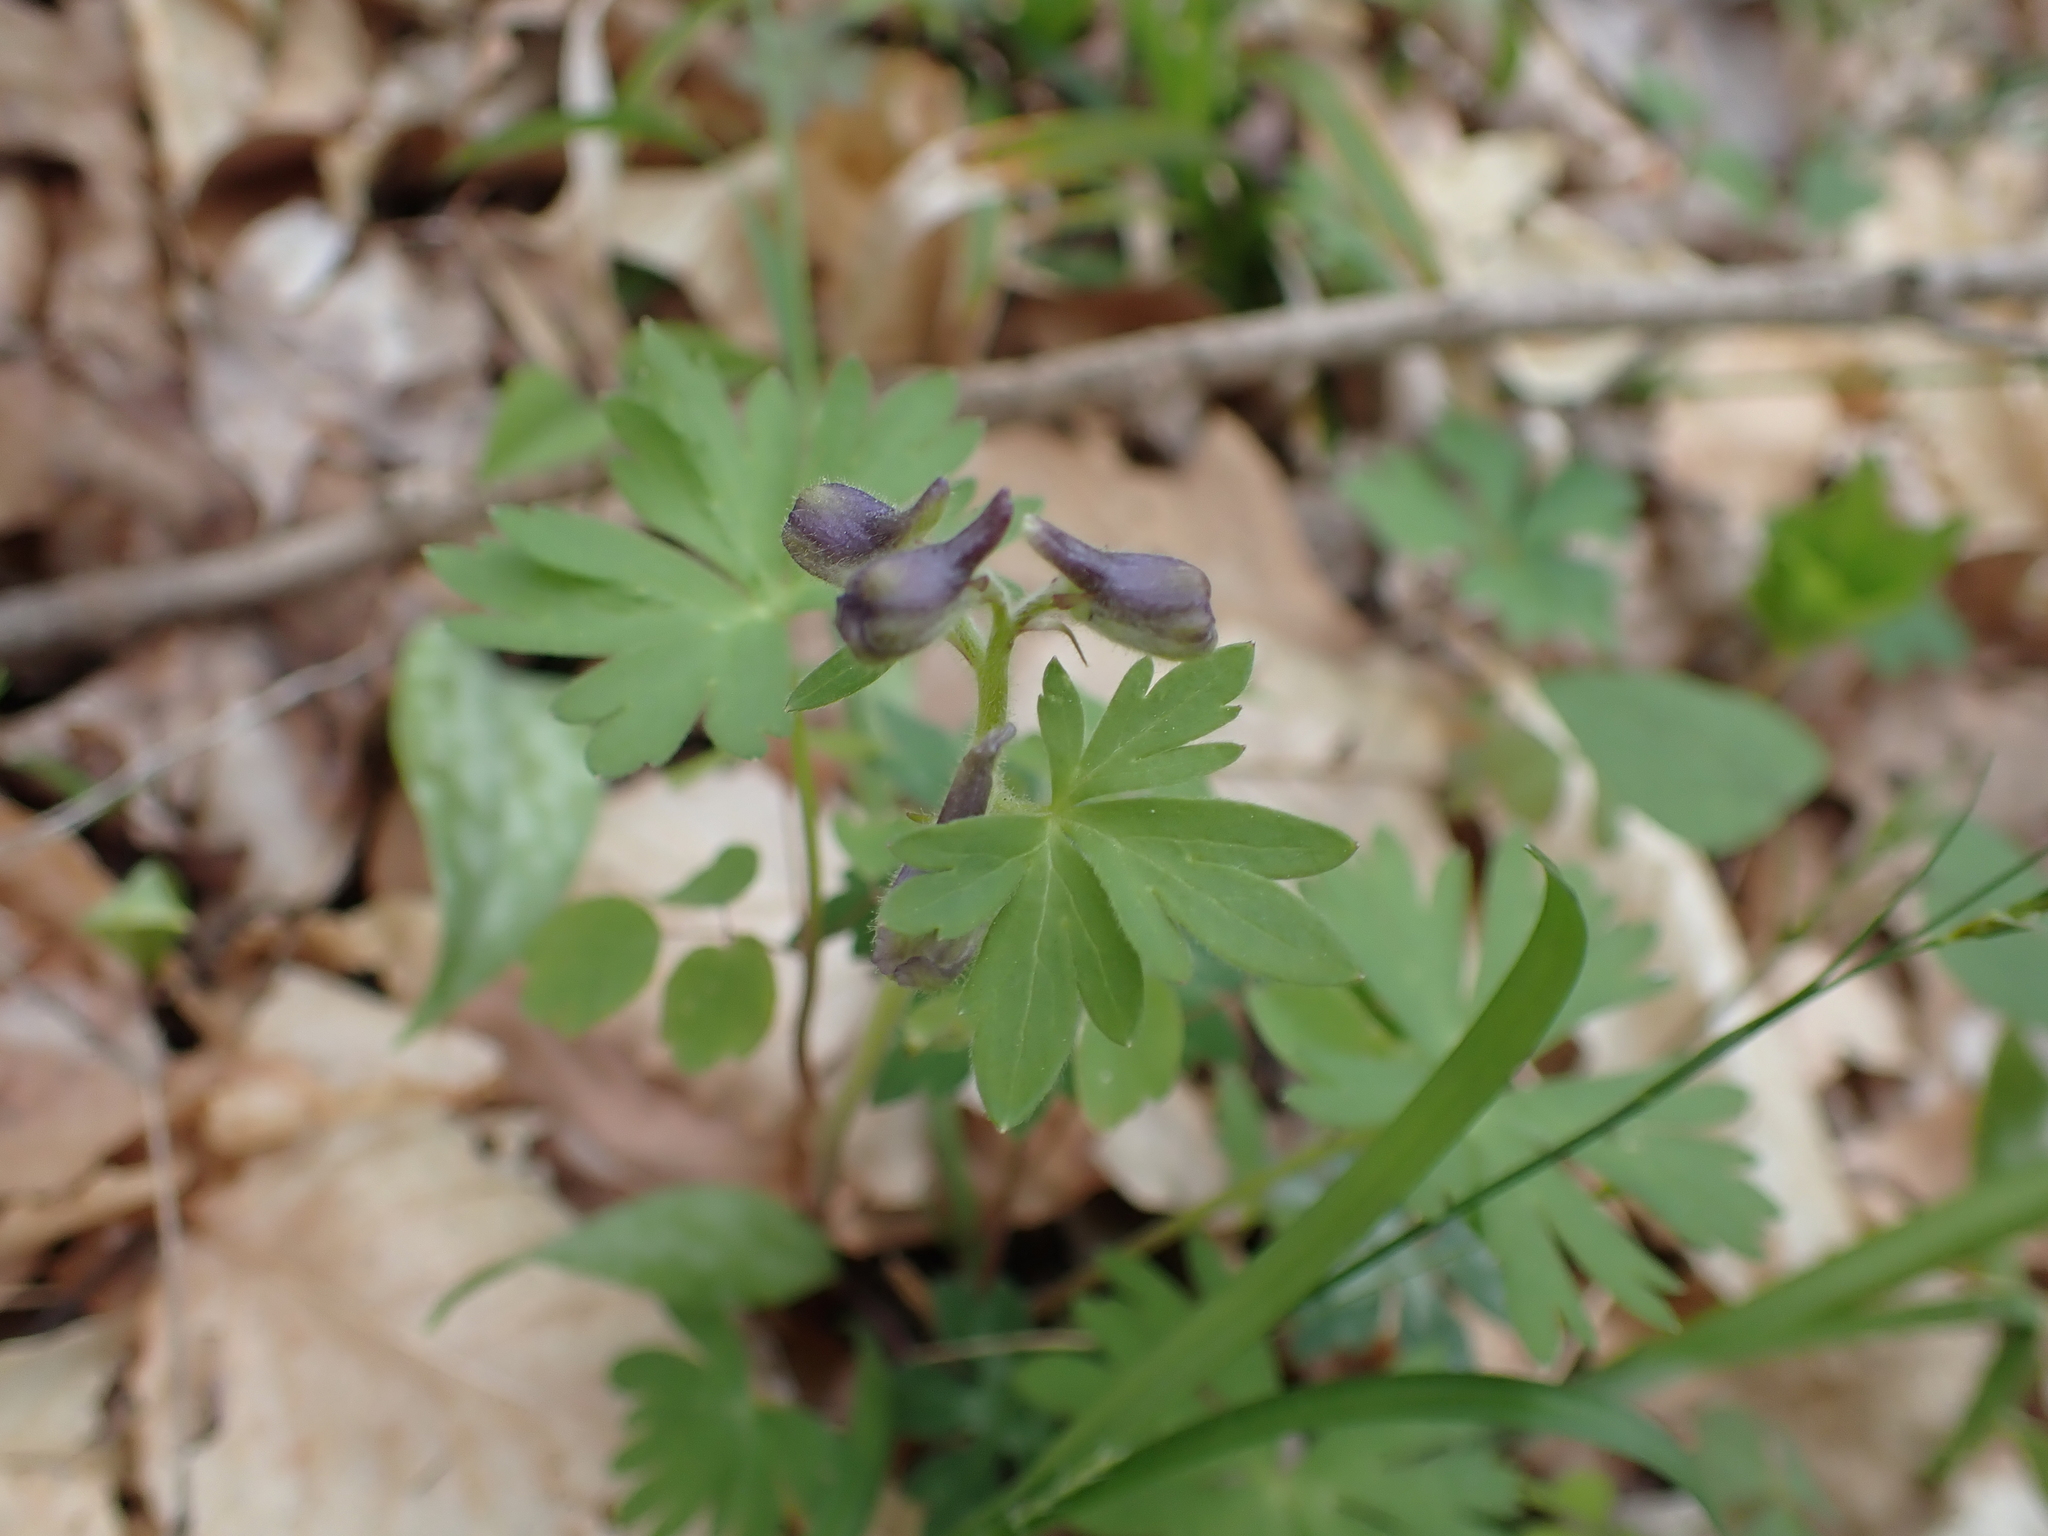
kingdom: Plantae
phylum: Tracheophyta
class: Magnoliopsida
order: Ranunculales
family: Ranunculaceae
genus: Delphinium
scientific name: Delphinium tricorne
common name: Dwarf larkspur
